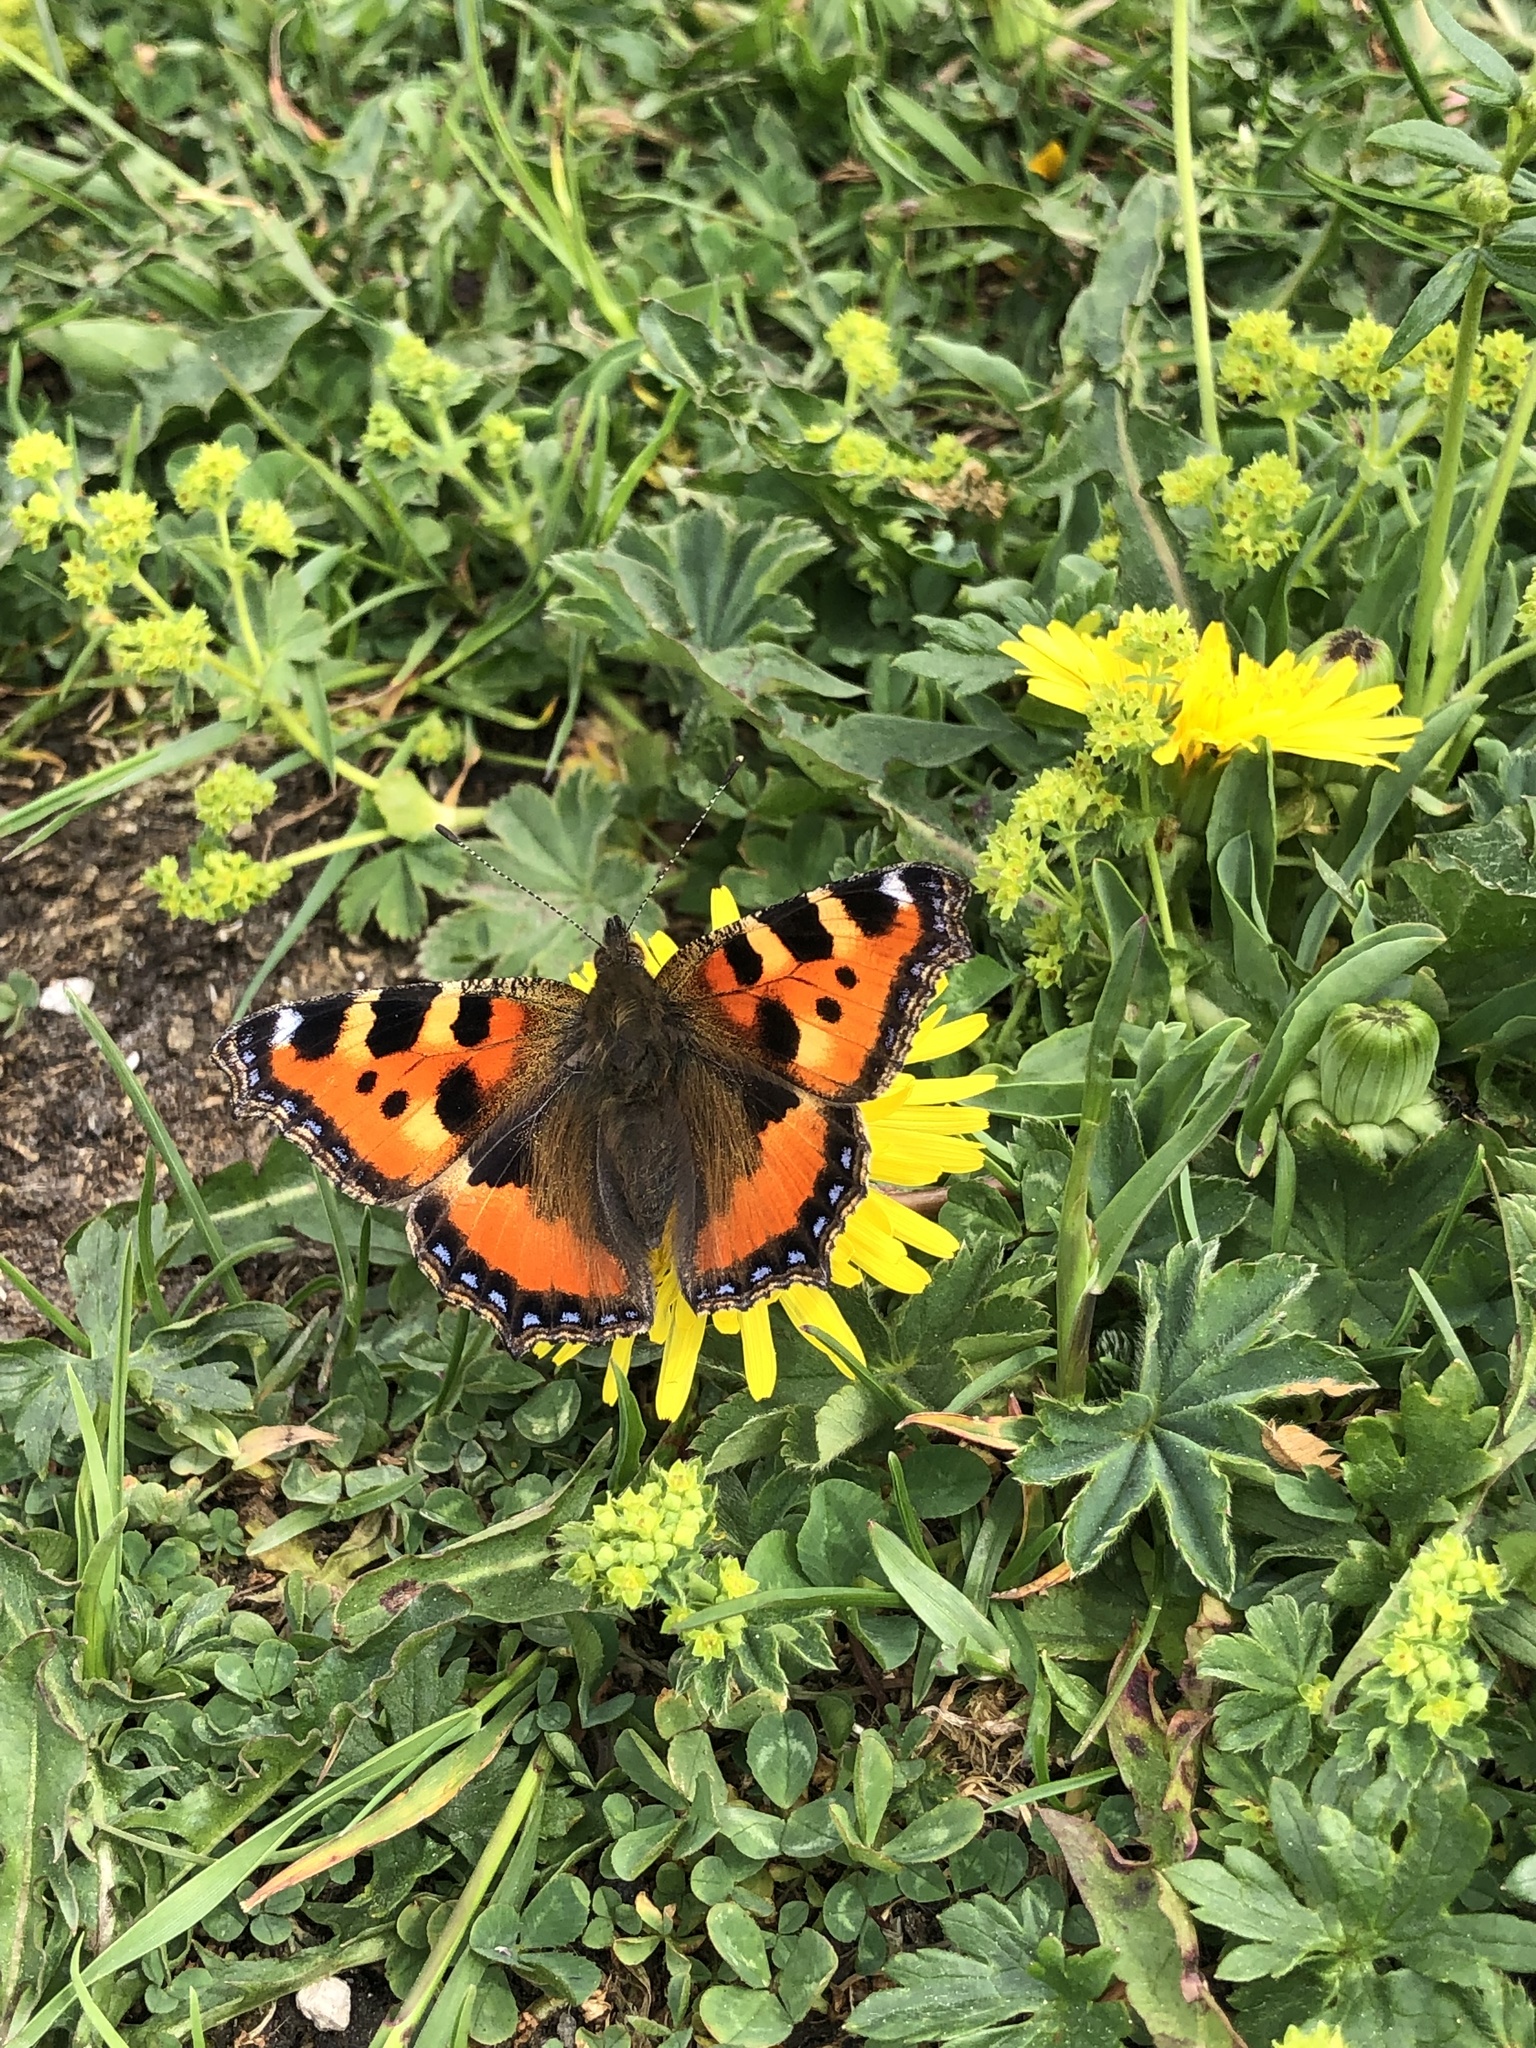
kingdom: Animalia
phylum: Arthropoda
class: Insecta
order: Lepidoptera
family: Nymphalidae
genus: Aglais
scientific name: Aglais urticae
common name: Small tortoiseshell
